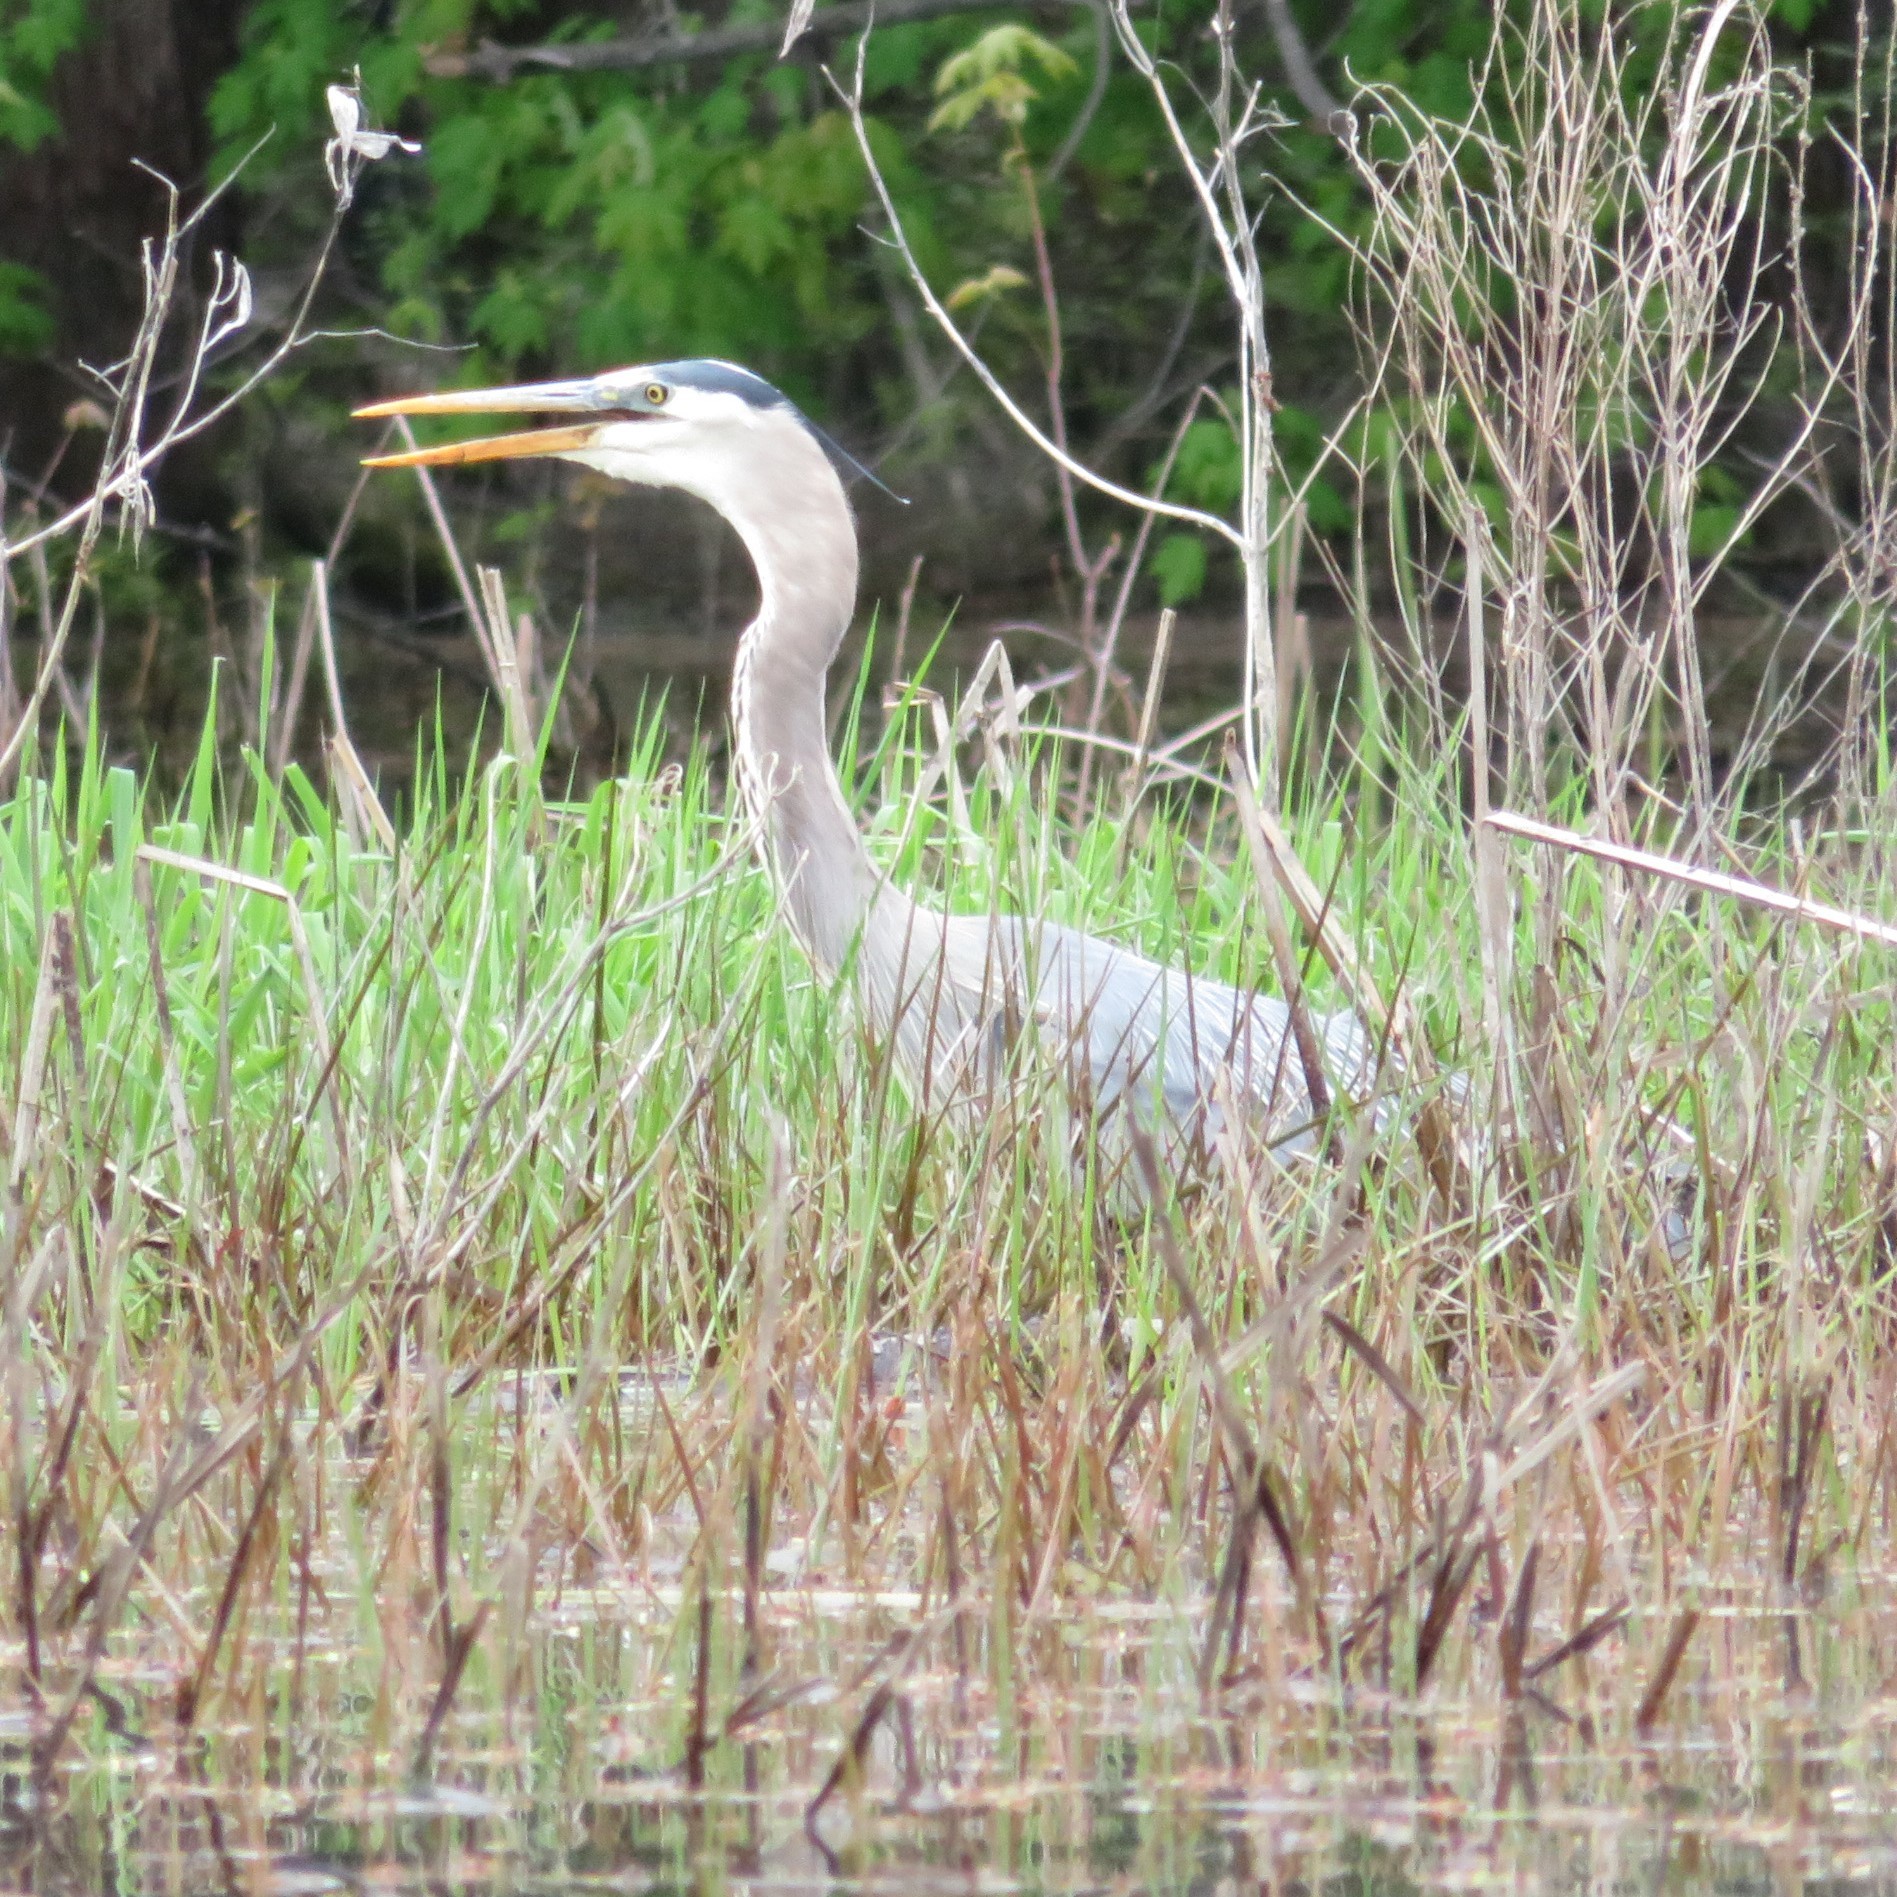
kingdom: Animalia
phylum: Chordata
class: Aves
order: Pelecaniformes
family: Ardeidae
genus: Ardea
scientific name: Ardea herodias
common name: Great blue heron
